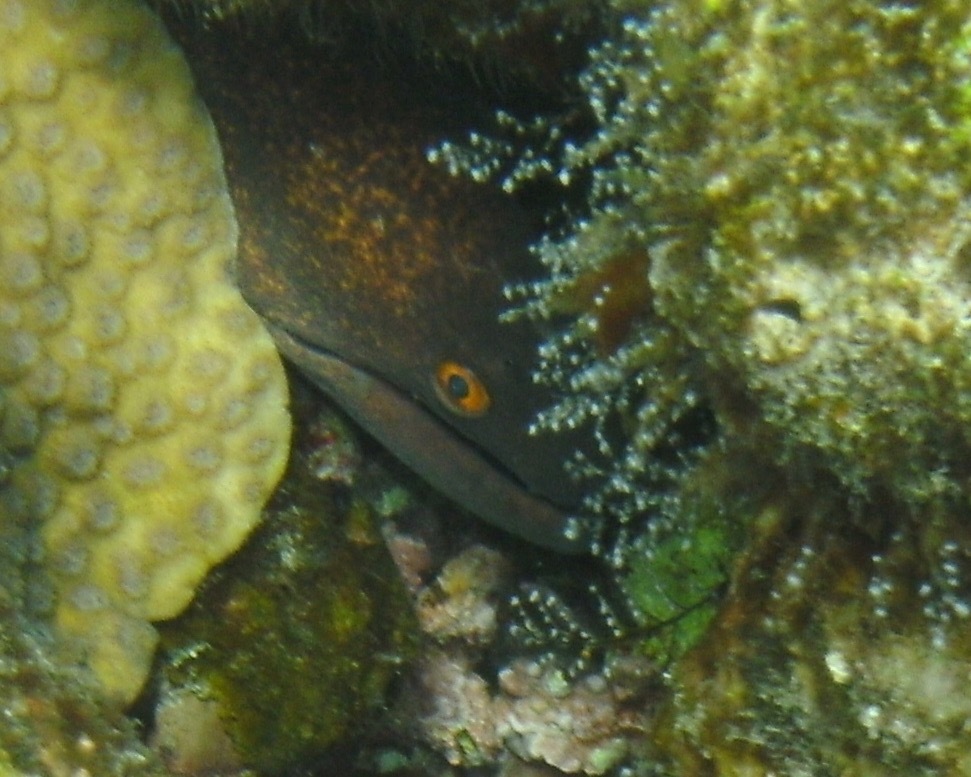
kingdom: Animalia
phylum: Chordata
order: Anguilliformes
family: Muraenidae
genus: Gymnothorax
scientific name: Gymnothorax flavimarginatus
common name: Yellow-edged moray
